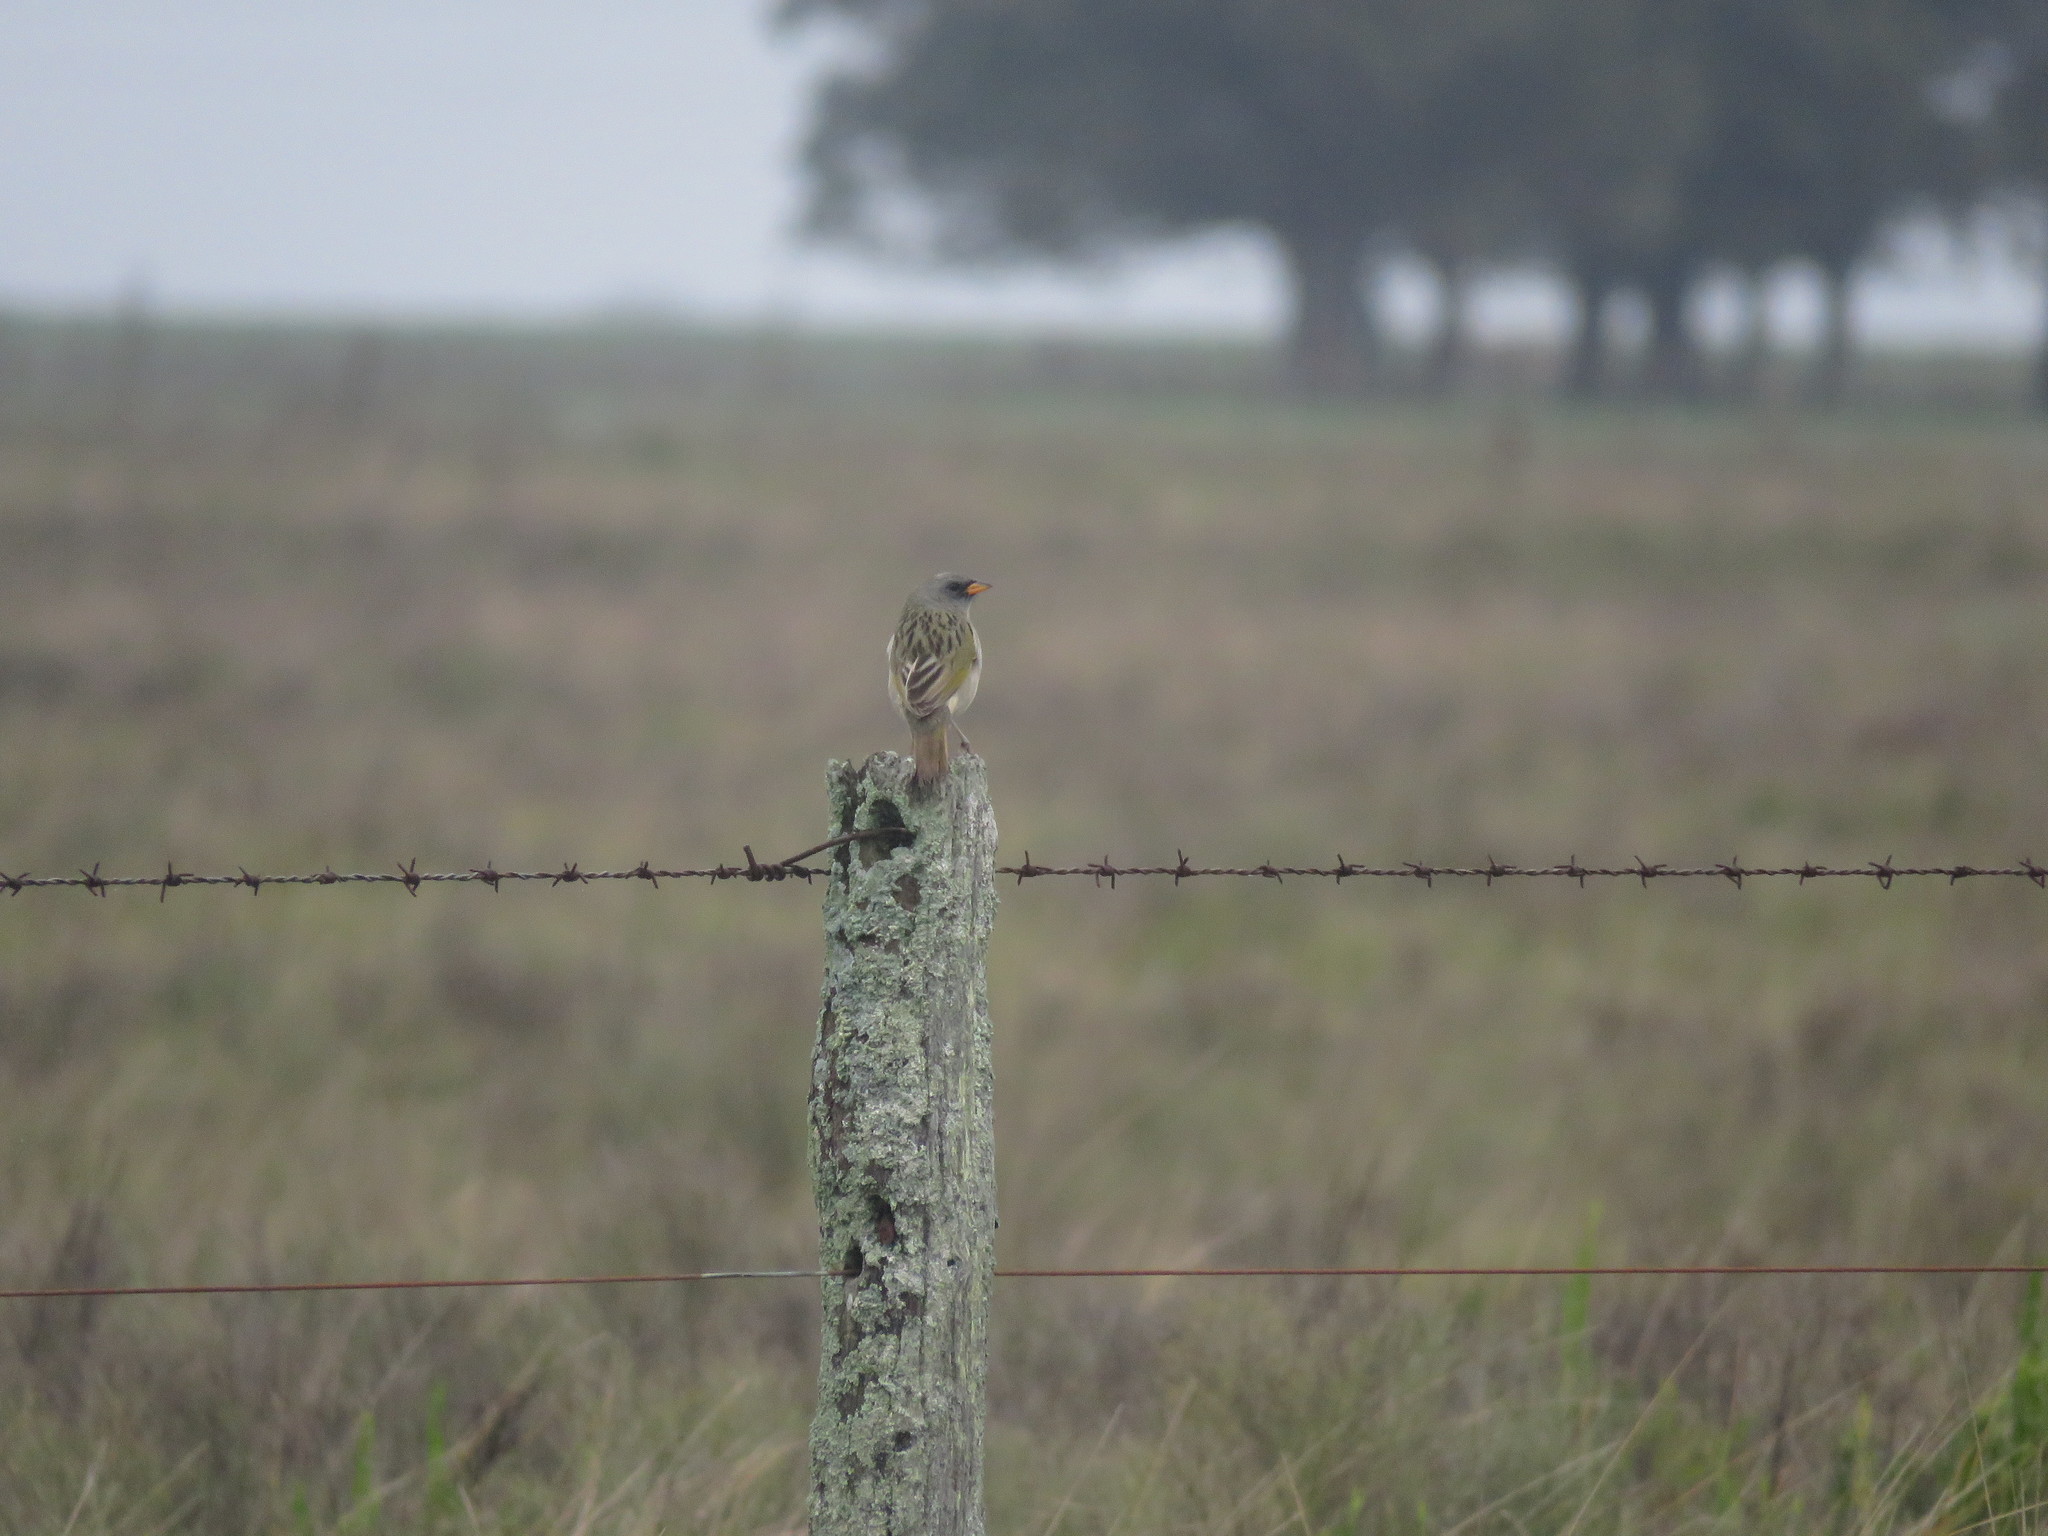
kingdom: Animalia
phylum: Chordata
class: Aves
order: Passeriformes
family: Thraupidae
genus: Embernagra
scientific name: Embernagra platensis
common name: Pampa finch
